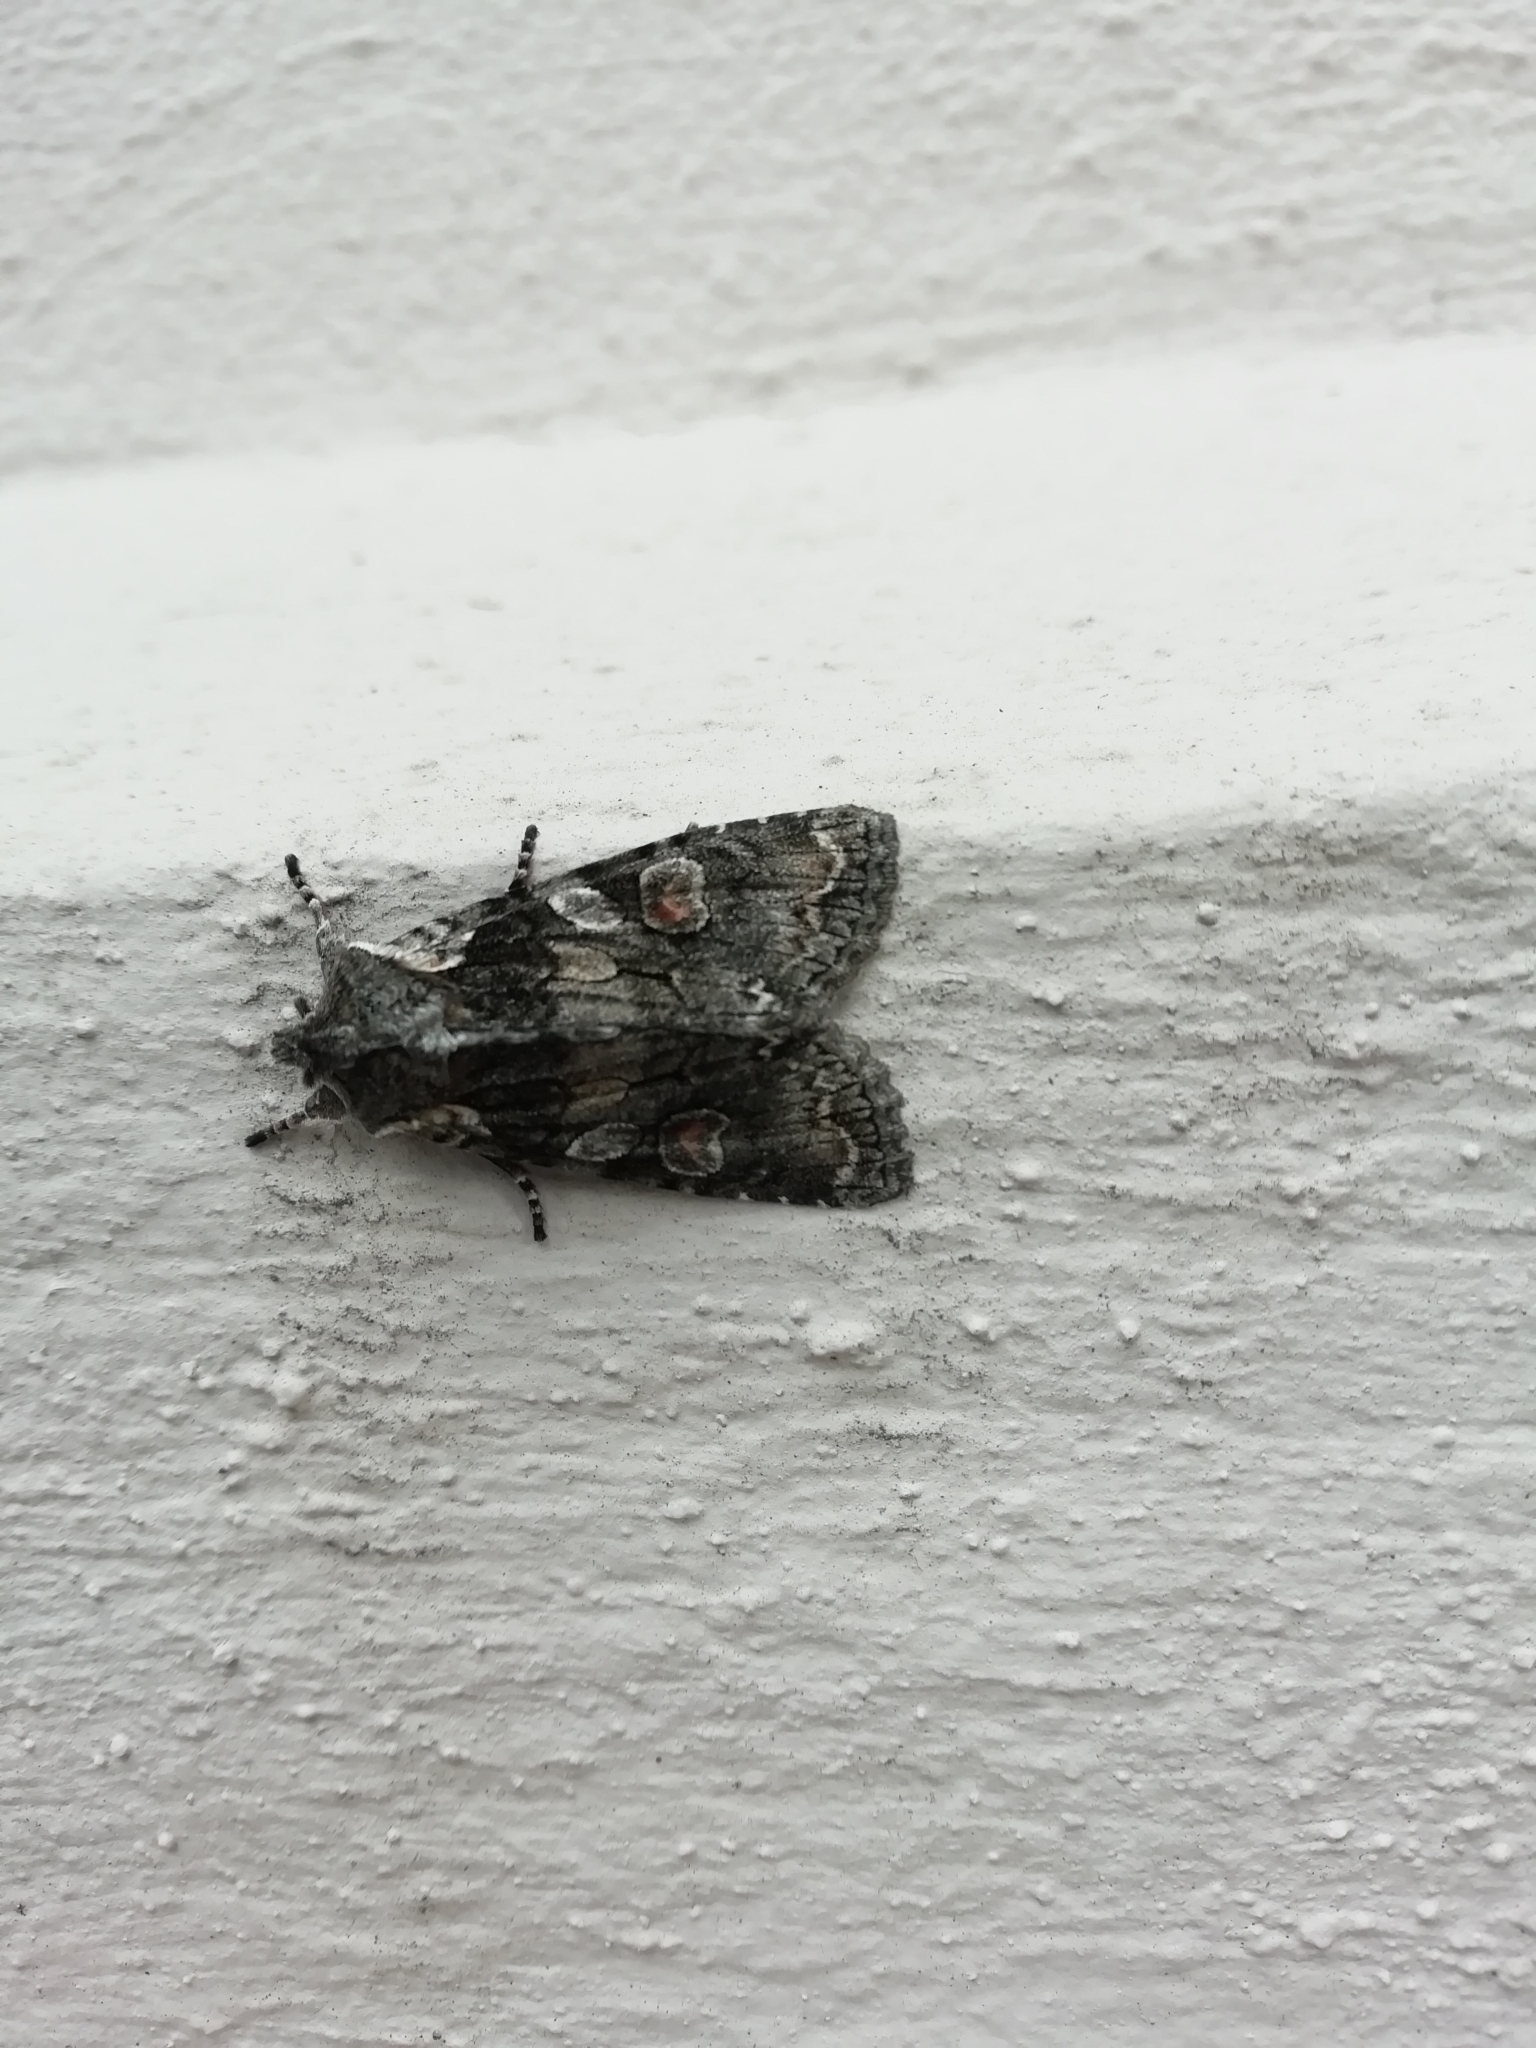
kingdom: Animalia
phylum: Arthropoda
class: Insecta
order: Lepidoptera
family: Noctuidae
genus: Lithophane
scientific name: Lithophane consocia
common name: Softly's shoulder-knot
